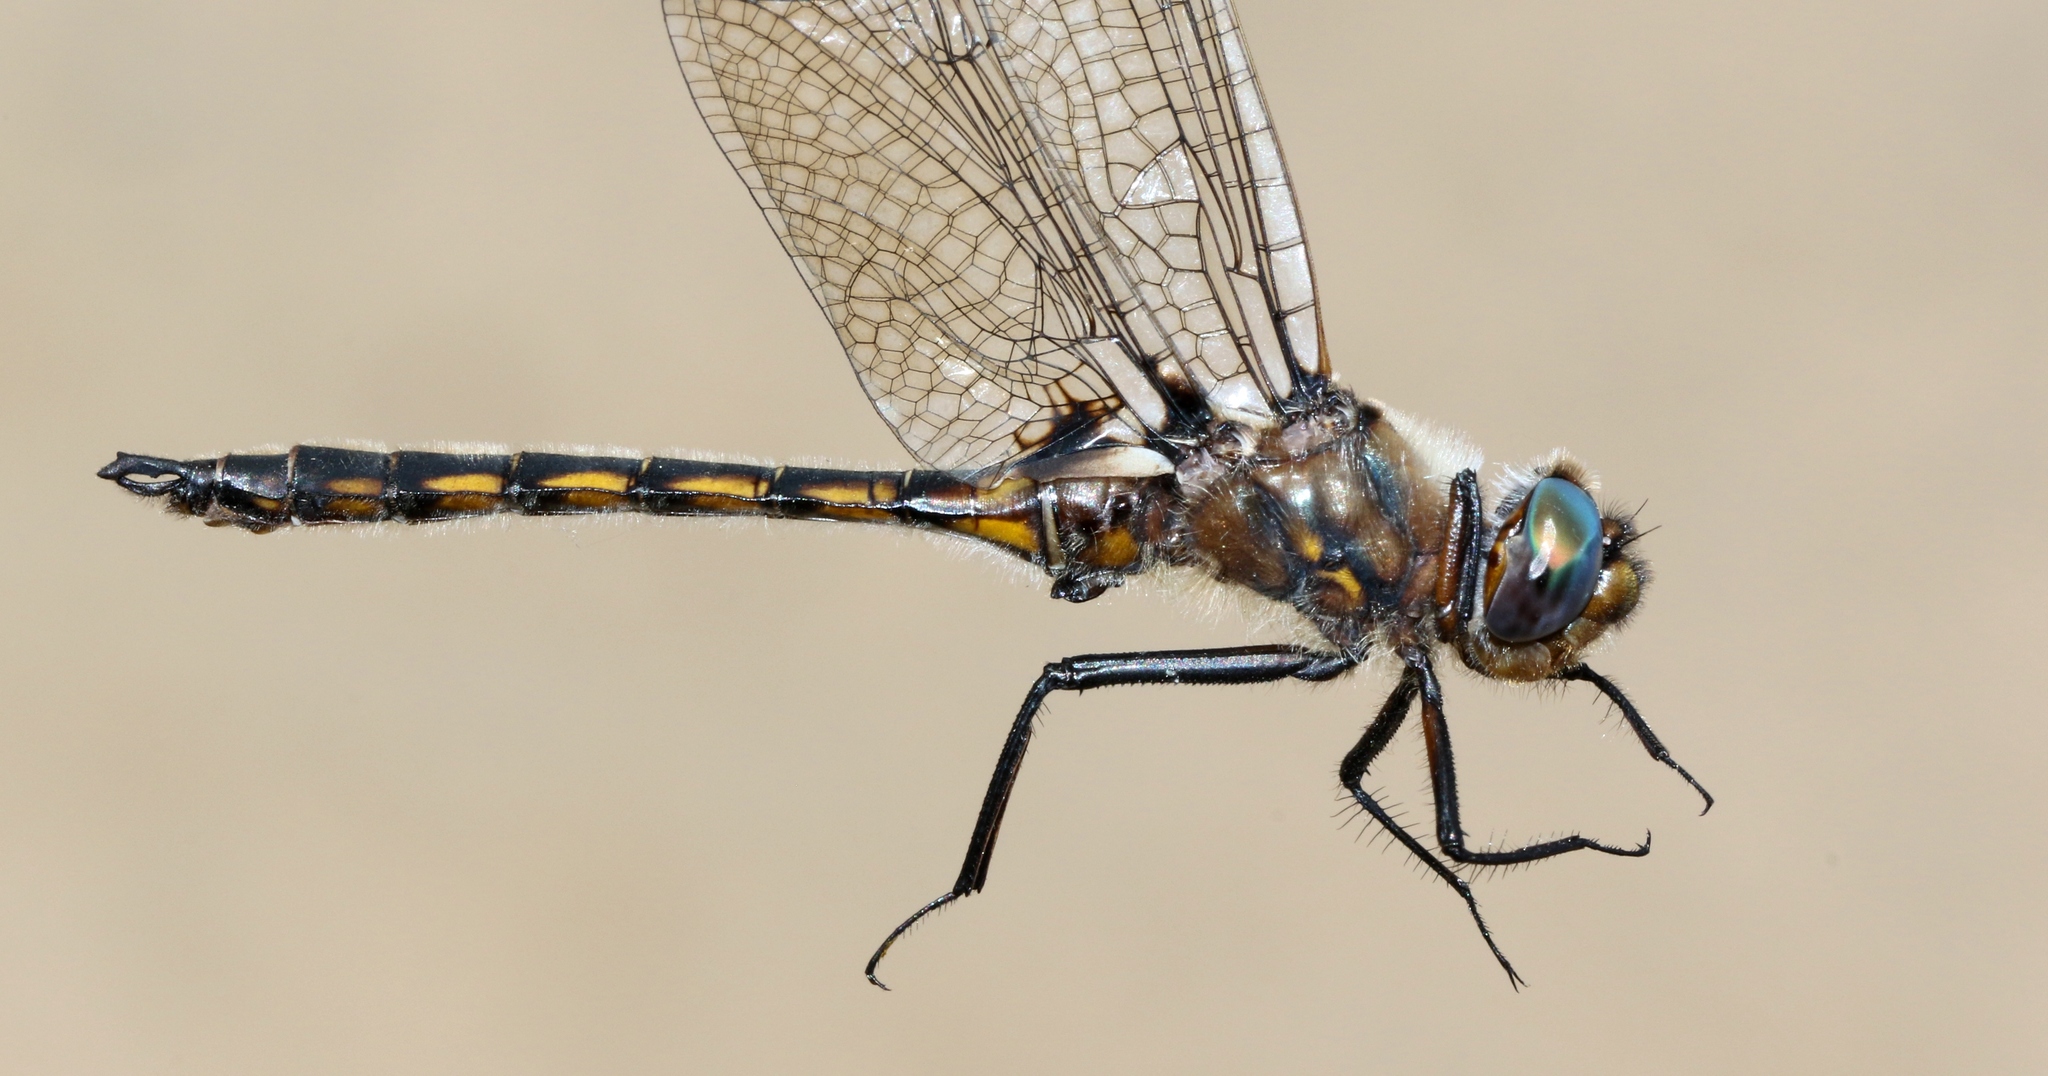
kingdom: Animalia
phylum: Arthropoda
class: Insecta
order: Odonata
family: Corduliidae
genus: Epitheca
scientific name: Epitheca canis
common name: Beaverpond baskettail
